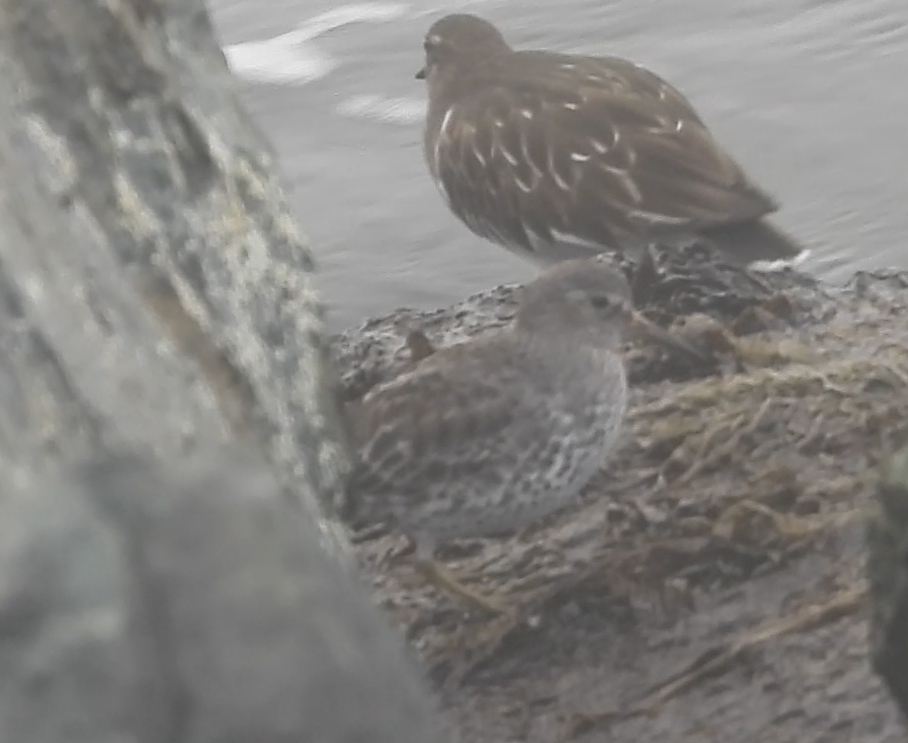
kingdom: Animalia
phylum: Chordata
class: Aves
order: Charadriiformes
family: Scolopacidae
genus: Calidris
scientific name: Calidris ptilocnemis
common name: Rock sandpiper
